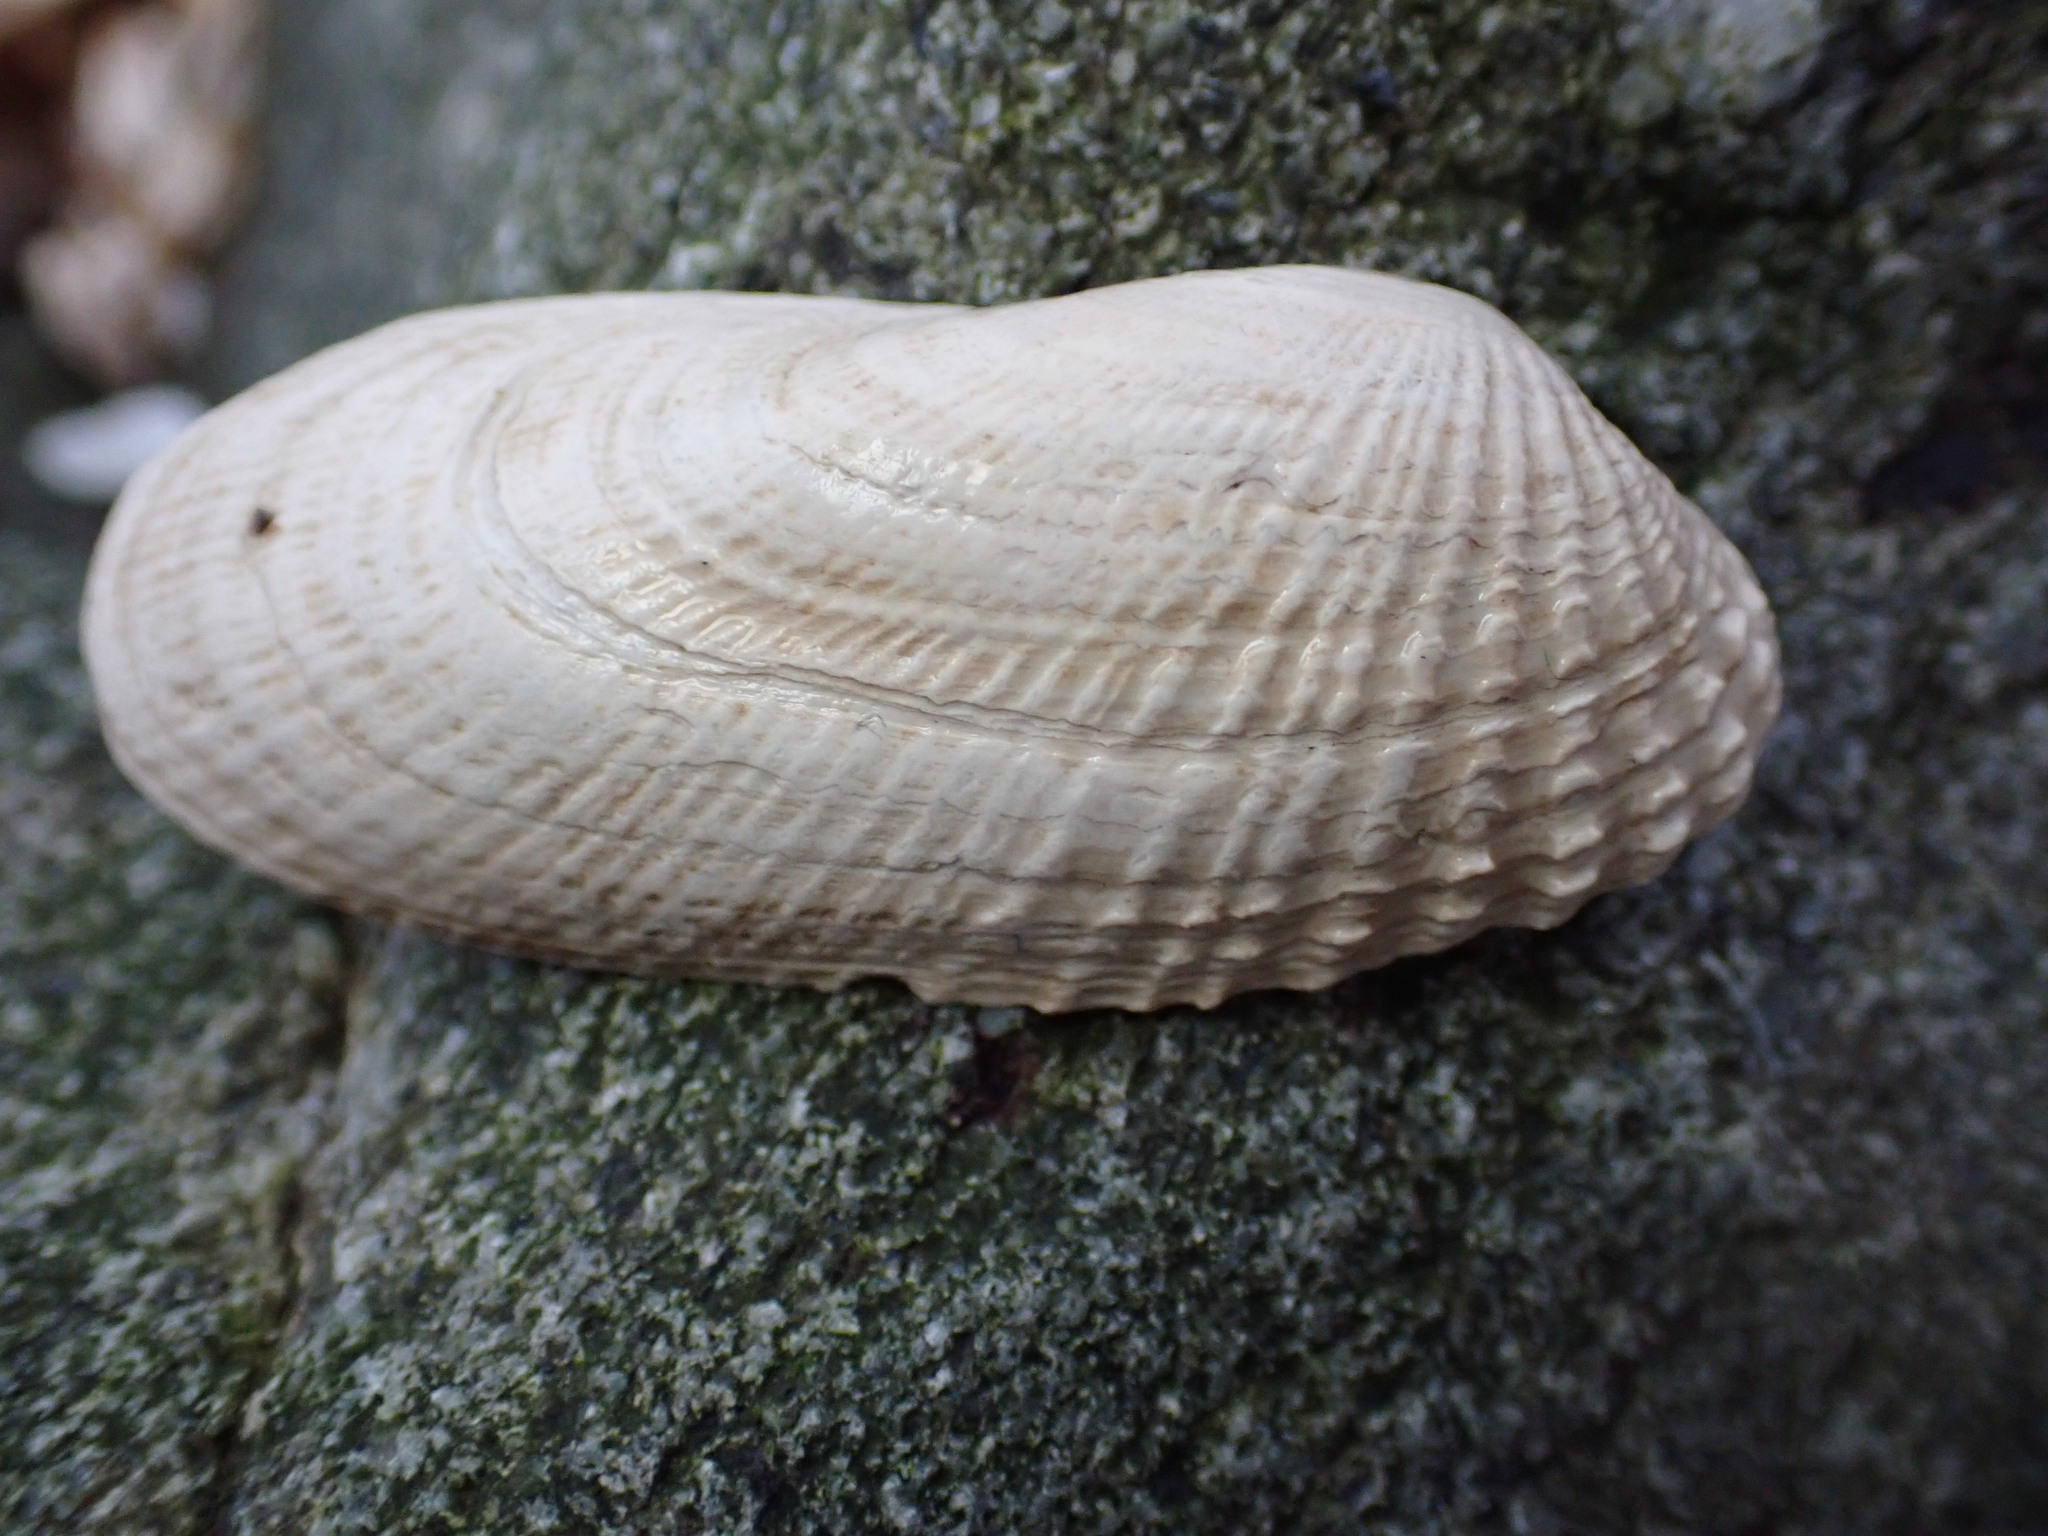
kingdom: Animalia
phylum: Mollusca
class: Bivalvia
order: Venerida
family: Veneridae
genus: Petricolaria
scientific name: Petricolaria pholadiformis
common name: American piddock
